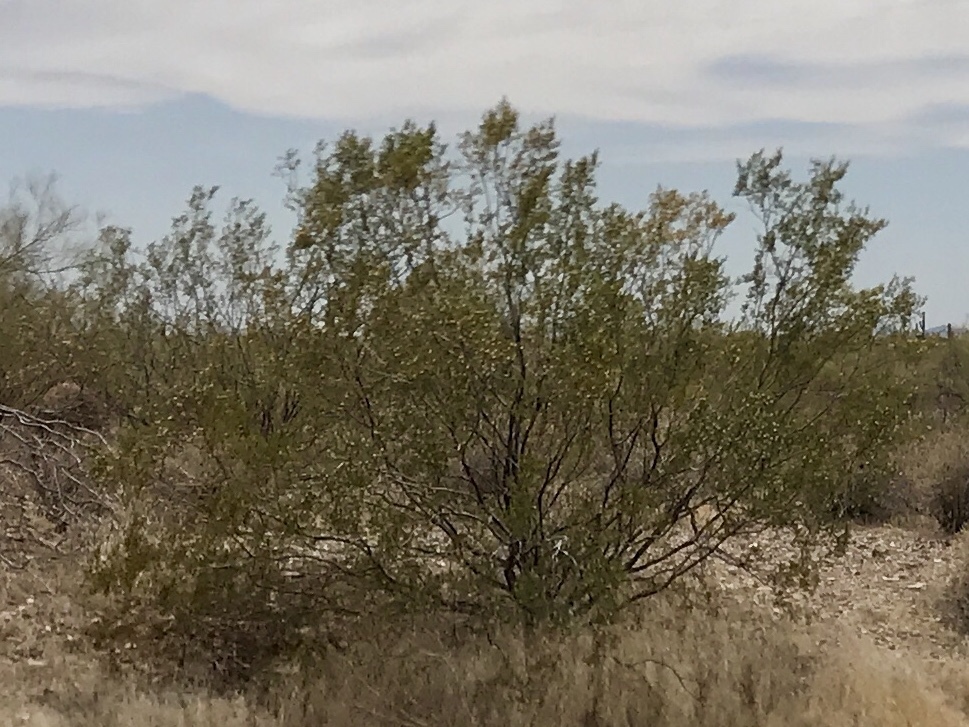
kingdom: Plantae
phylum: Tracheophyta
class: Magnoliopsida
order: Zygophyllales
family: Zygophyllaceae
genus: Larrea
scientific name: Larrea tridentata
